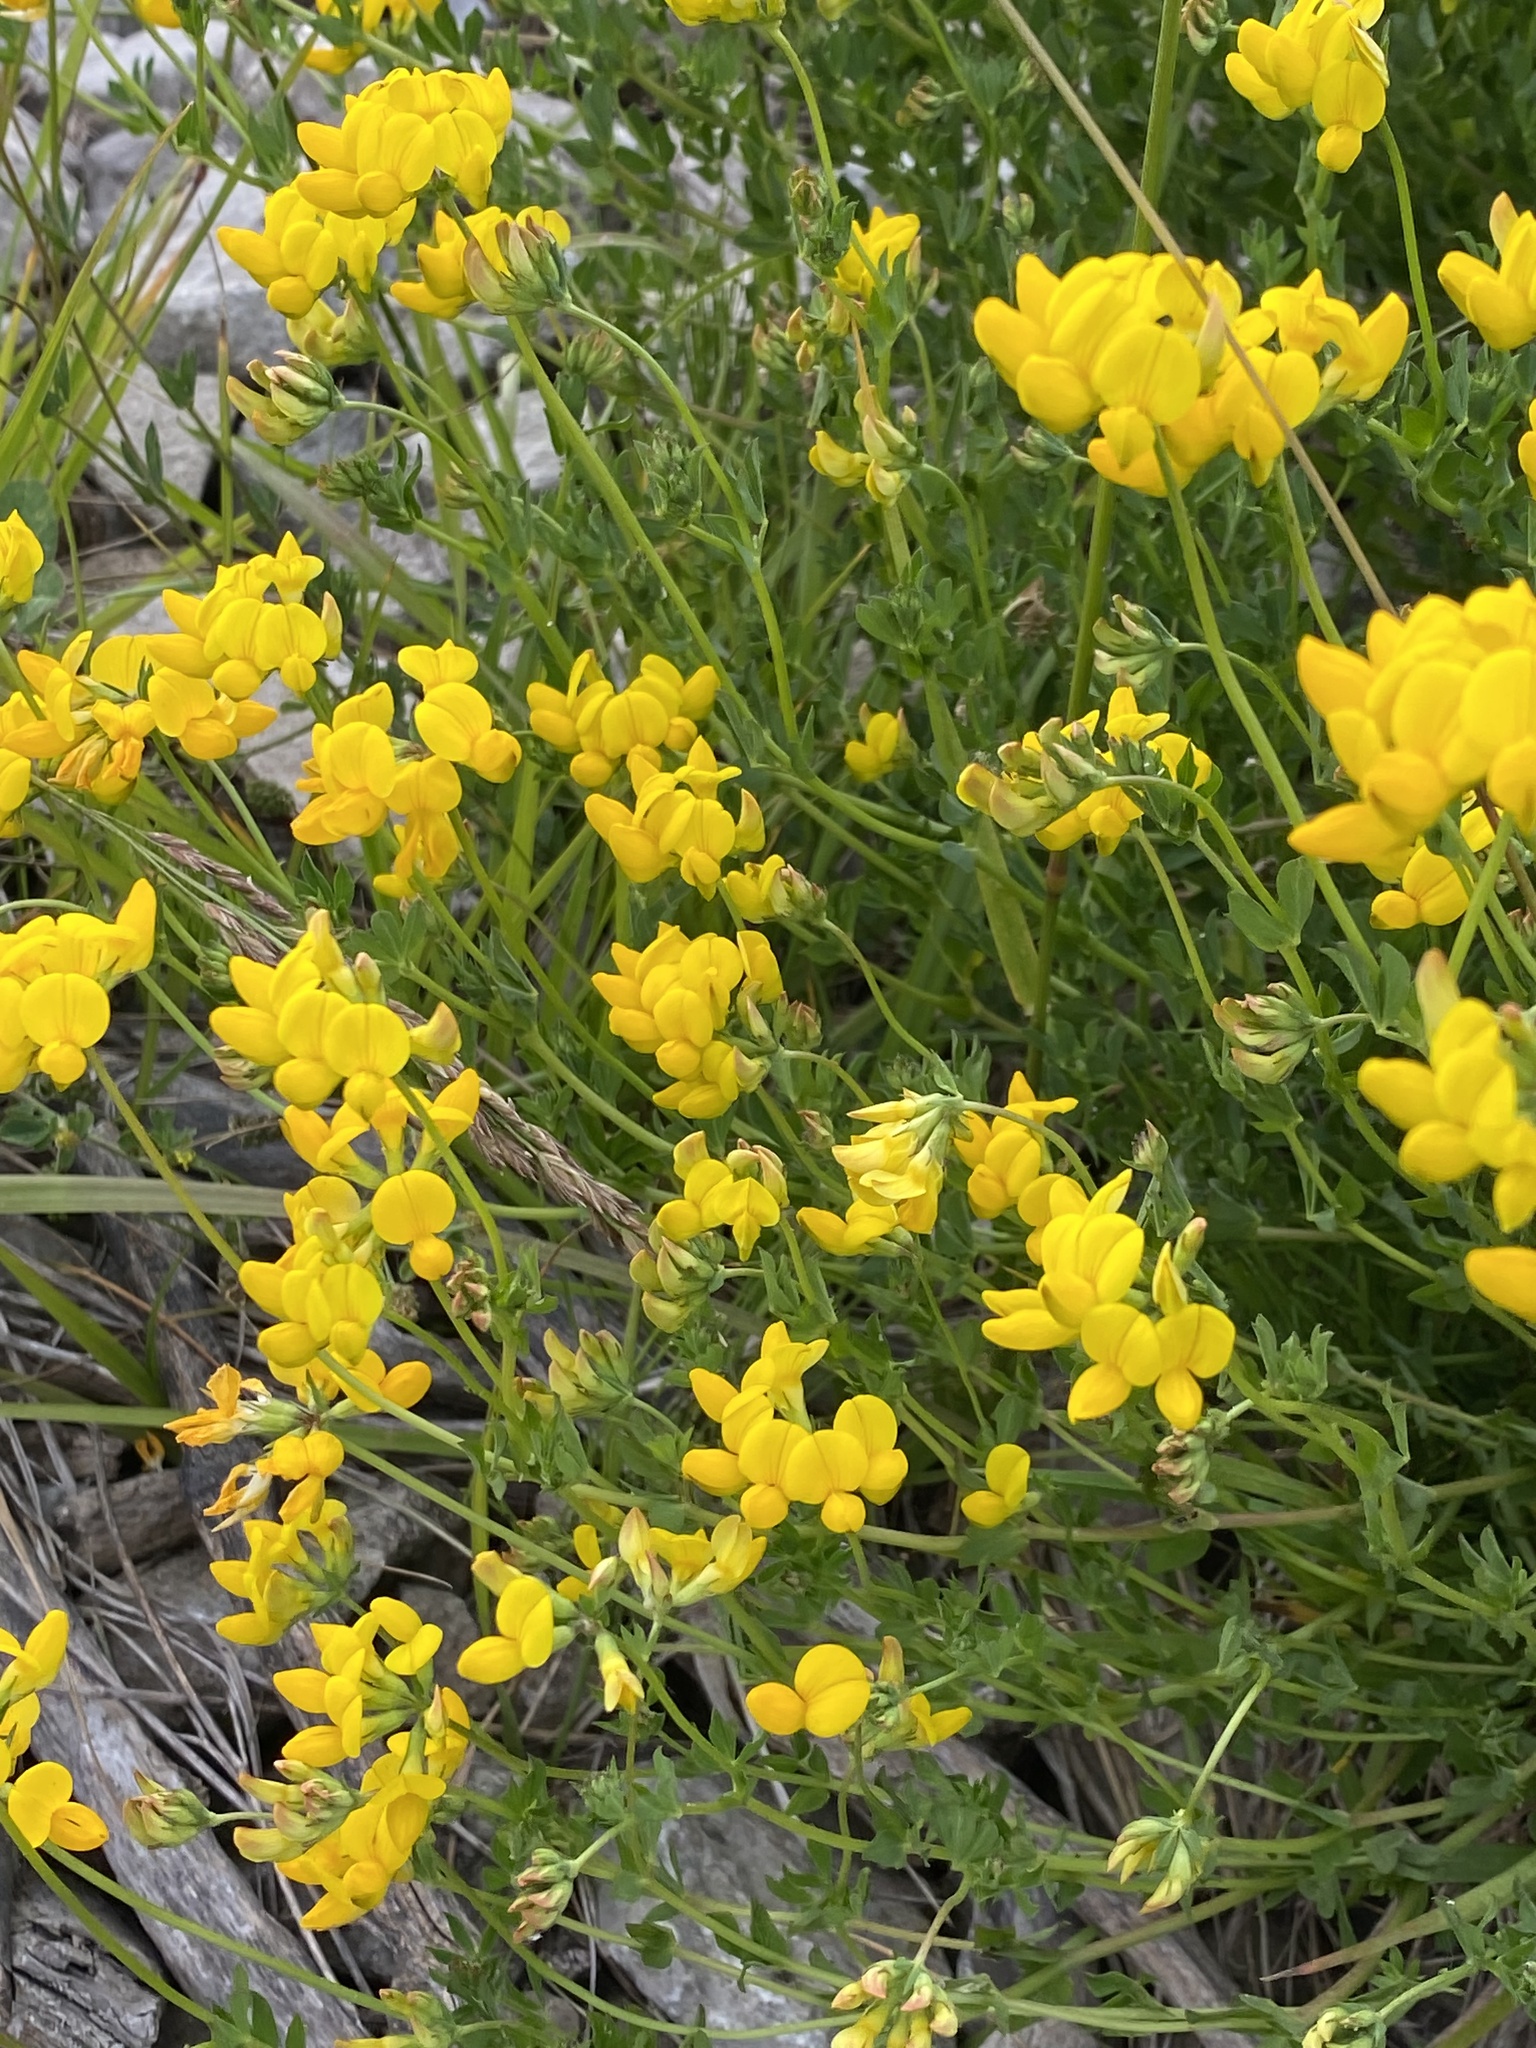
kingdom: Plantae
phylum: Tracheophyta
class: Magnoliopsida
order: Fabales
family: Fabaceae
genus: Lotus
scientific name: Lotus corniculatus
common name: Common bird's-foot-trefoil
